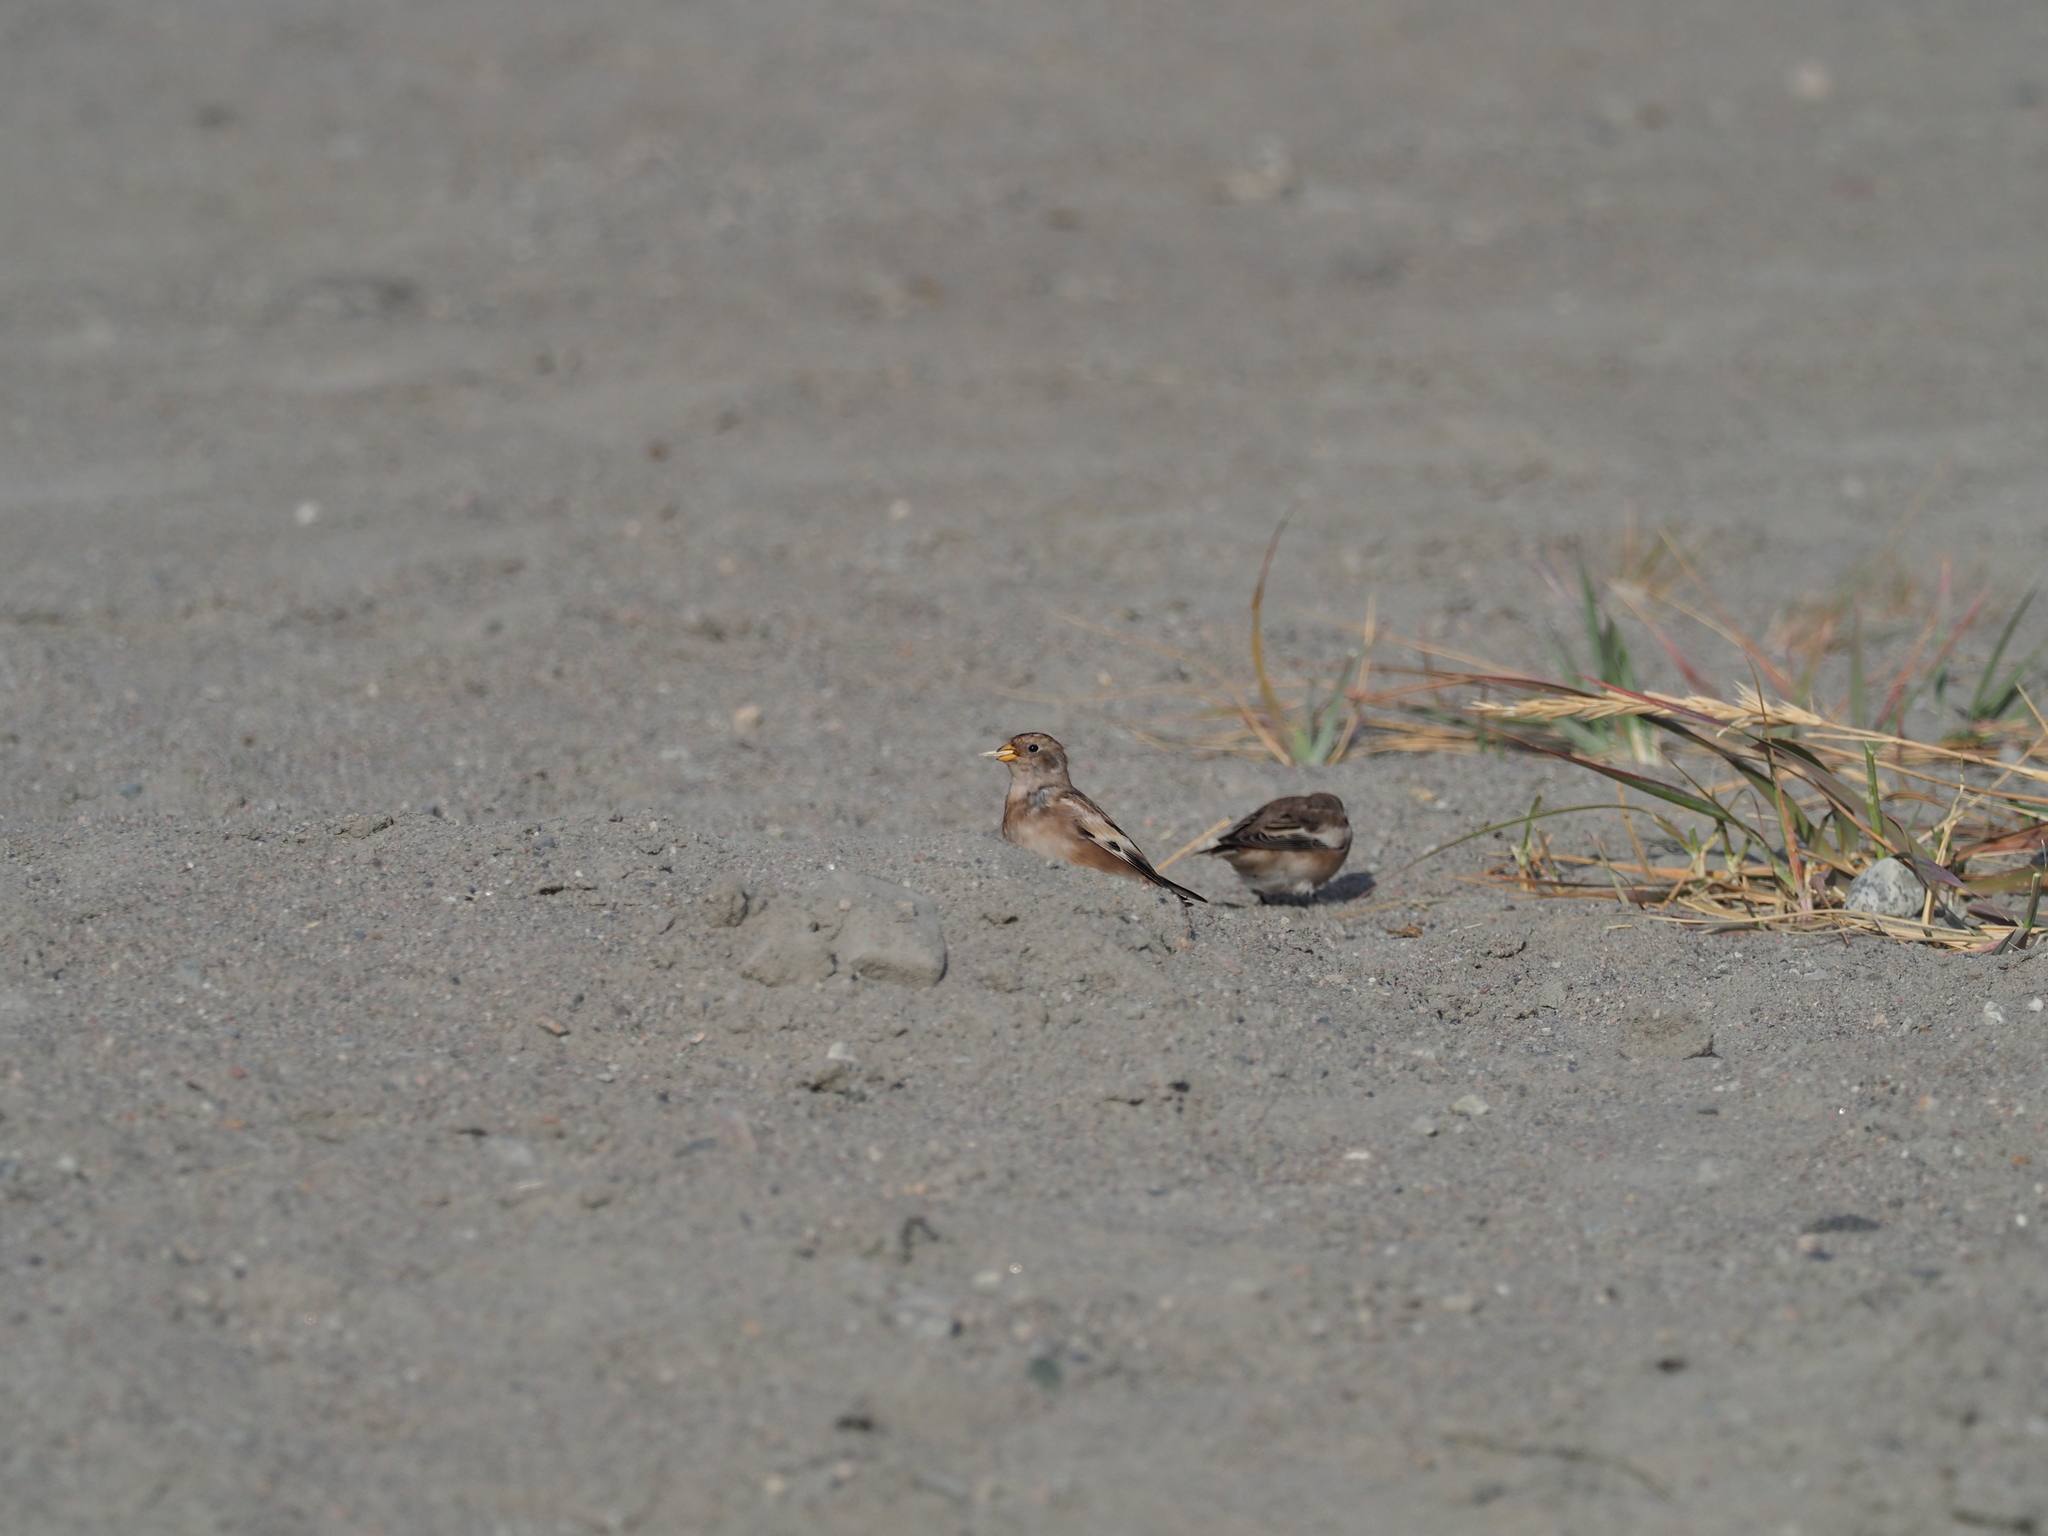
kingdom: Animalia
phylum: Chordata
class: Aves
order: Passeriformes
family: Calcariidae
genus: Plectrophenax
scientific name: Plectrophenax nivalis
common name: Snow bunting
